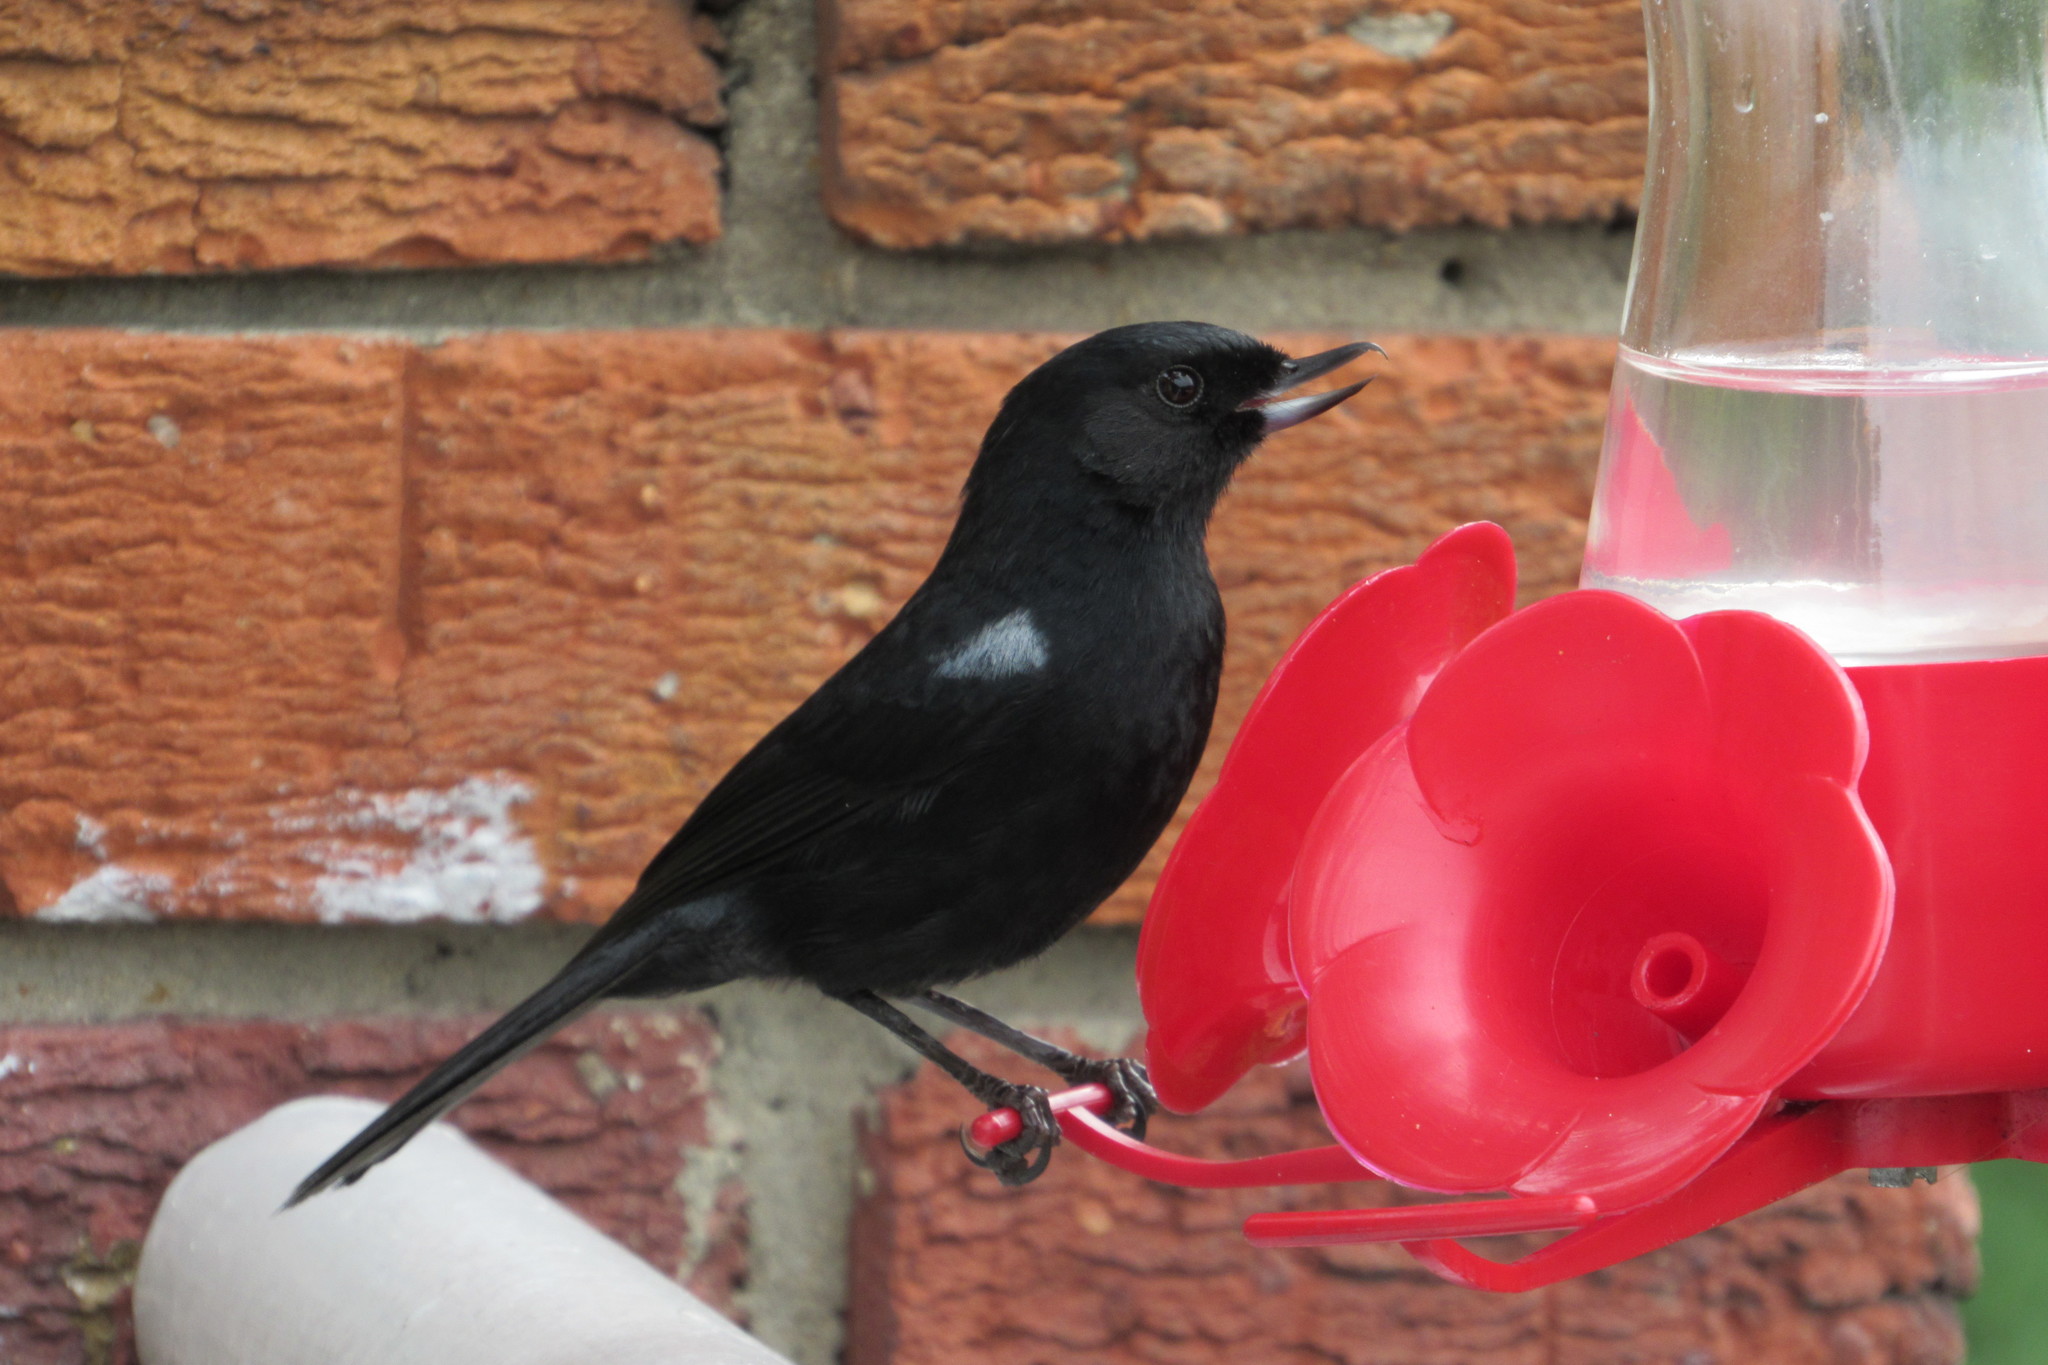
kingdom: Animalia
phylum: Chordata
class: Aves
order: Passeriformes
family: Thraupidae
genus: Diglossa
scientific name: Diglossa humeralis
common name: Black flowerpiercer
